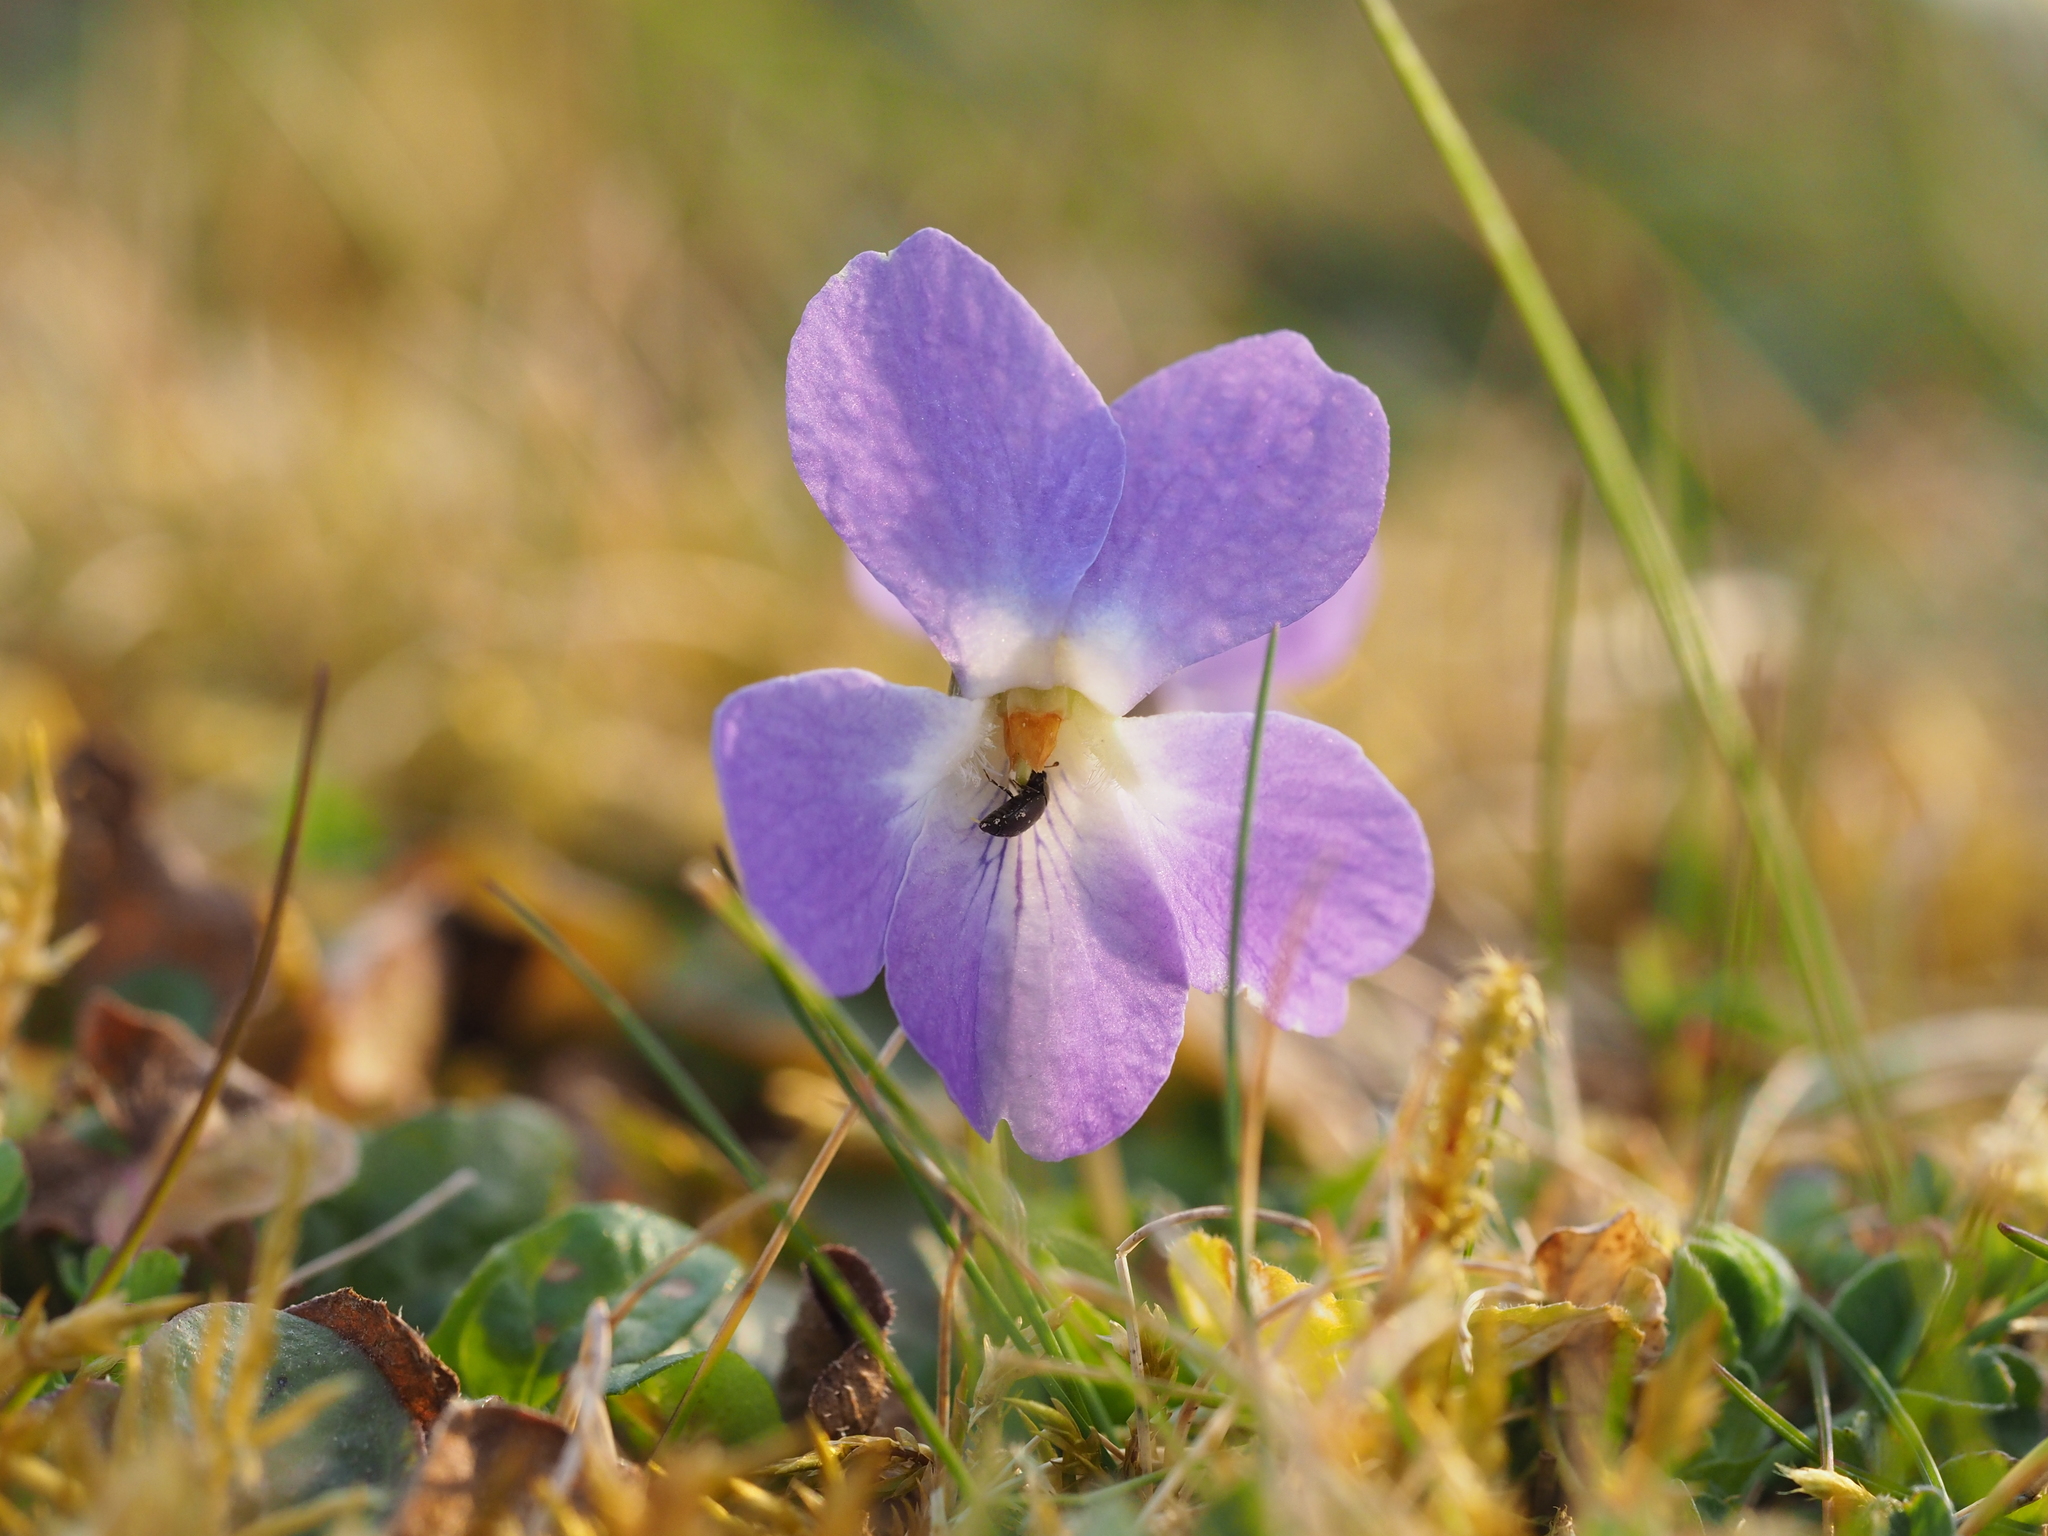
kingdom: Plantae
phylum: Tracheophyta
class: Magnoliopsida
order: Malpighiales
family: Violaceae
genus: Viola
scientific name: Viola hirta
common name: Hairy violet
